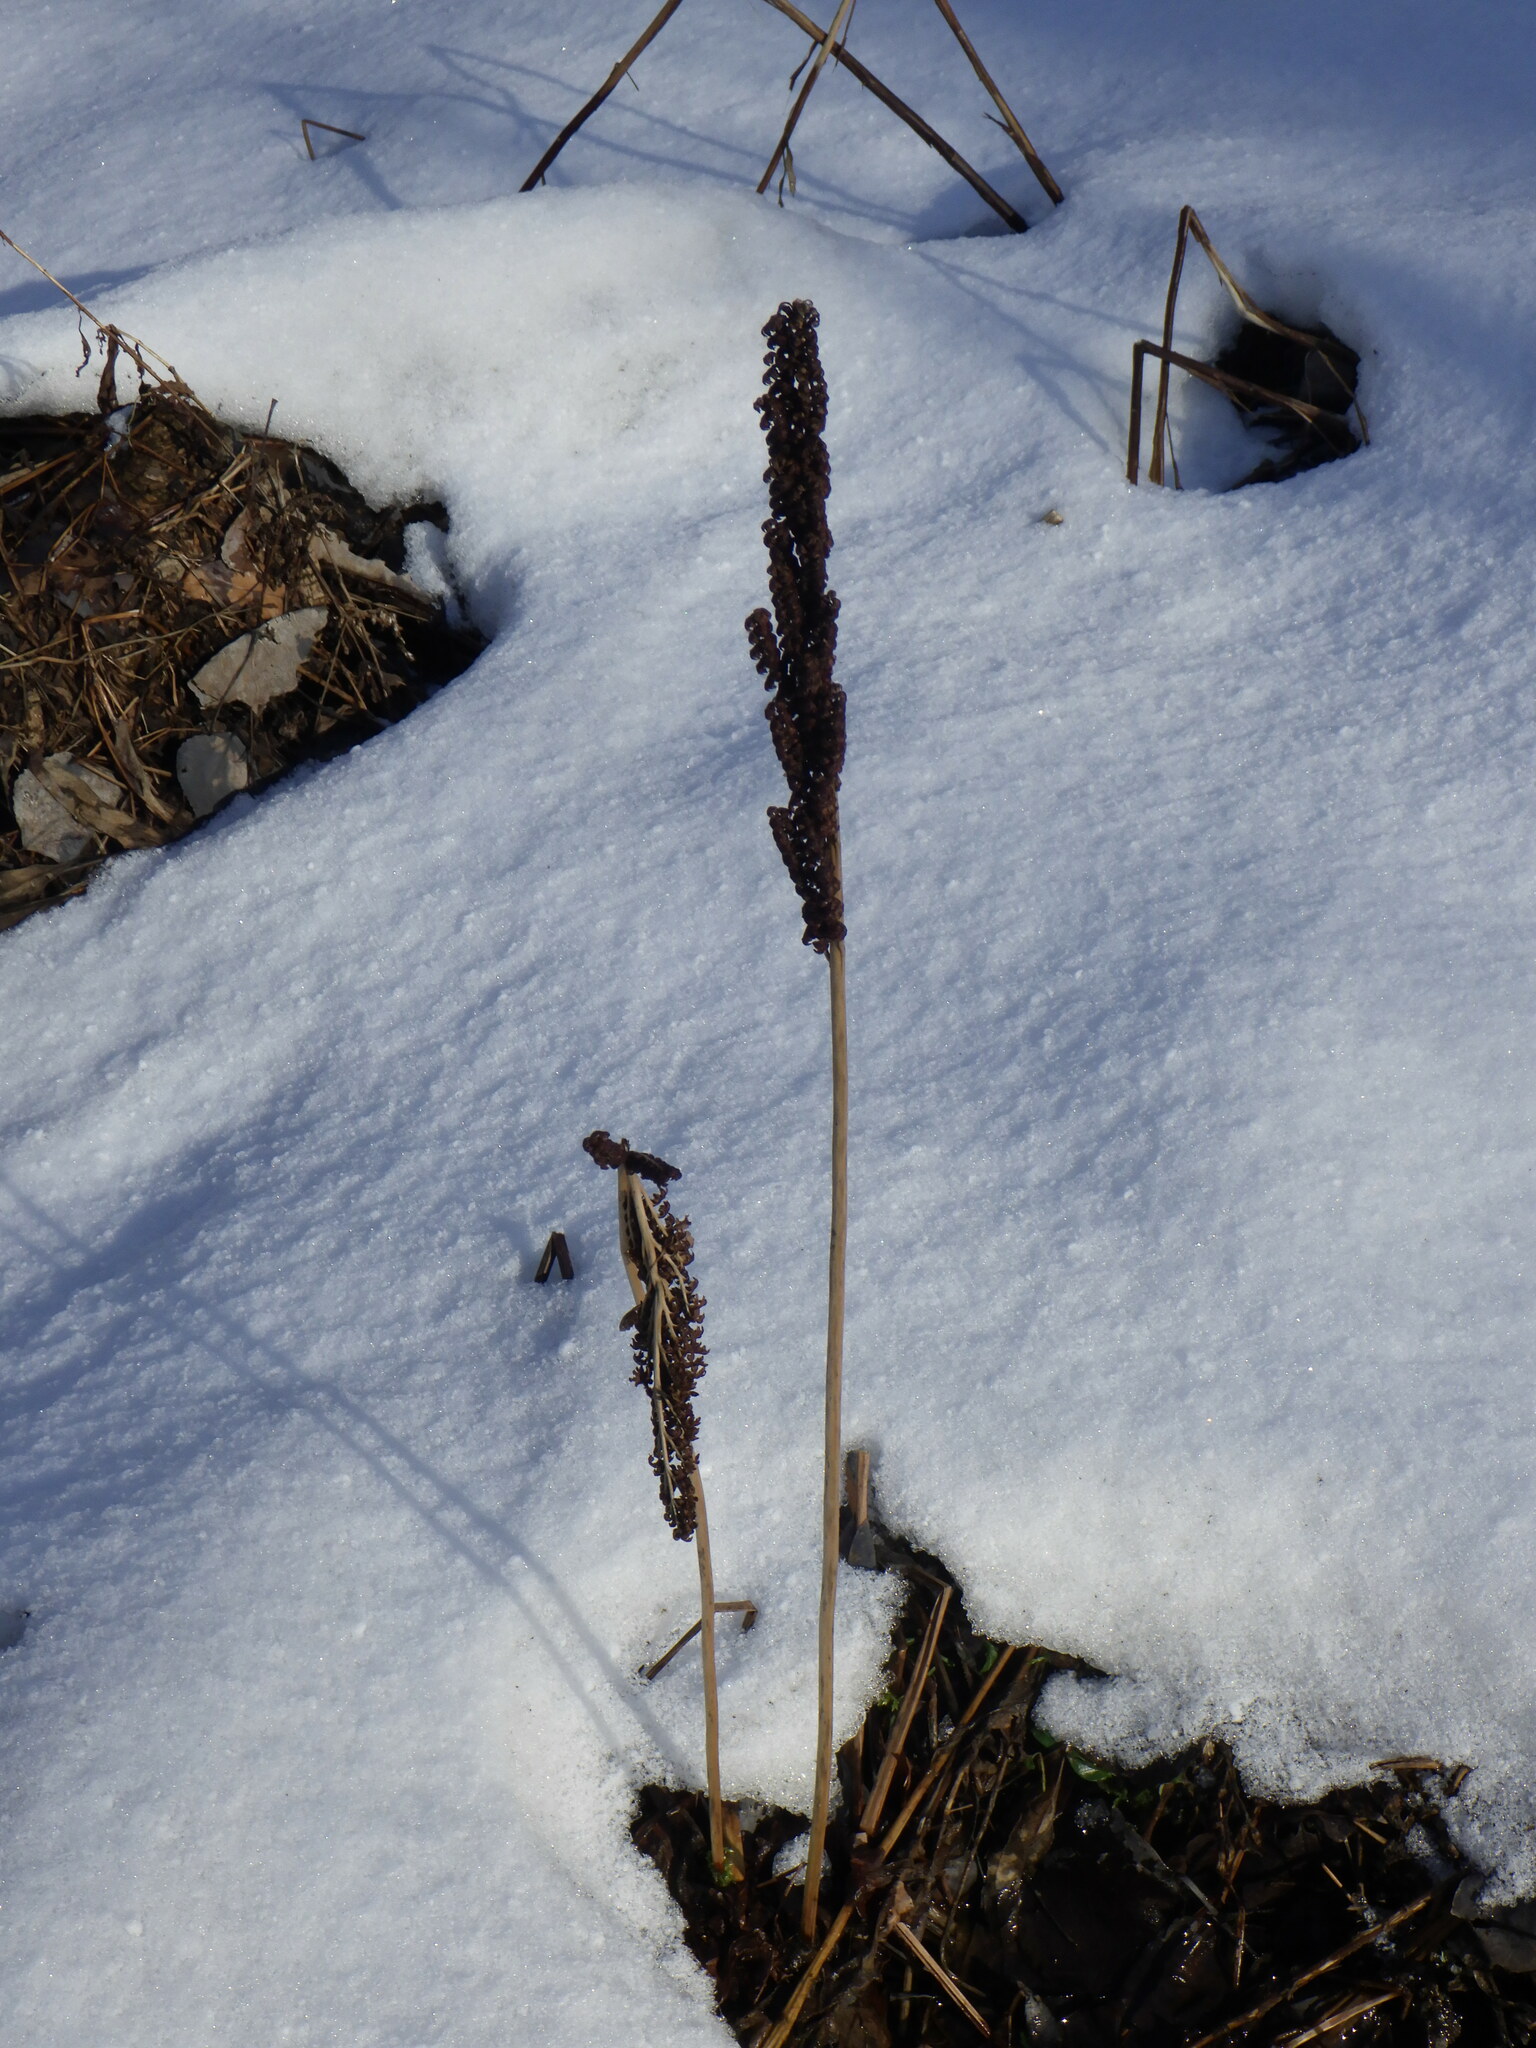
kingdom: Plantae
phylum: Tracheophyta
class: Polypodiopsida
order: Polypodiales
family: Onocleaceae
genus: Onoclea
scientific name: Onoclea sensibilis
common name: Sensitive fern
